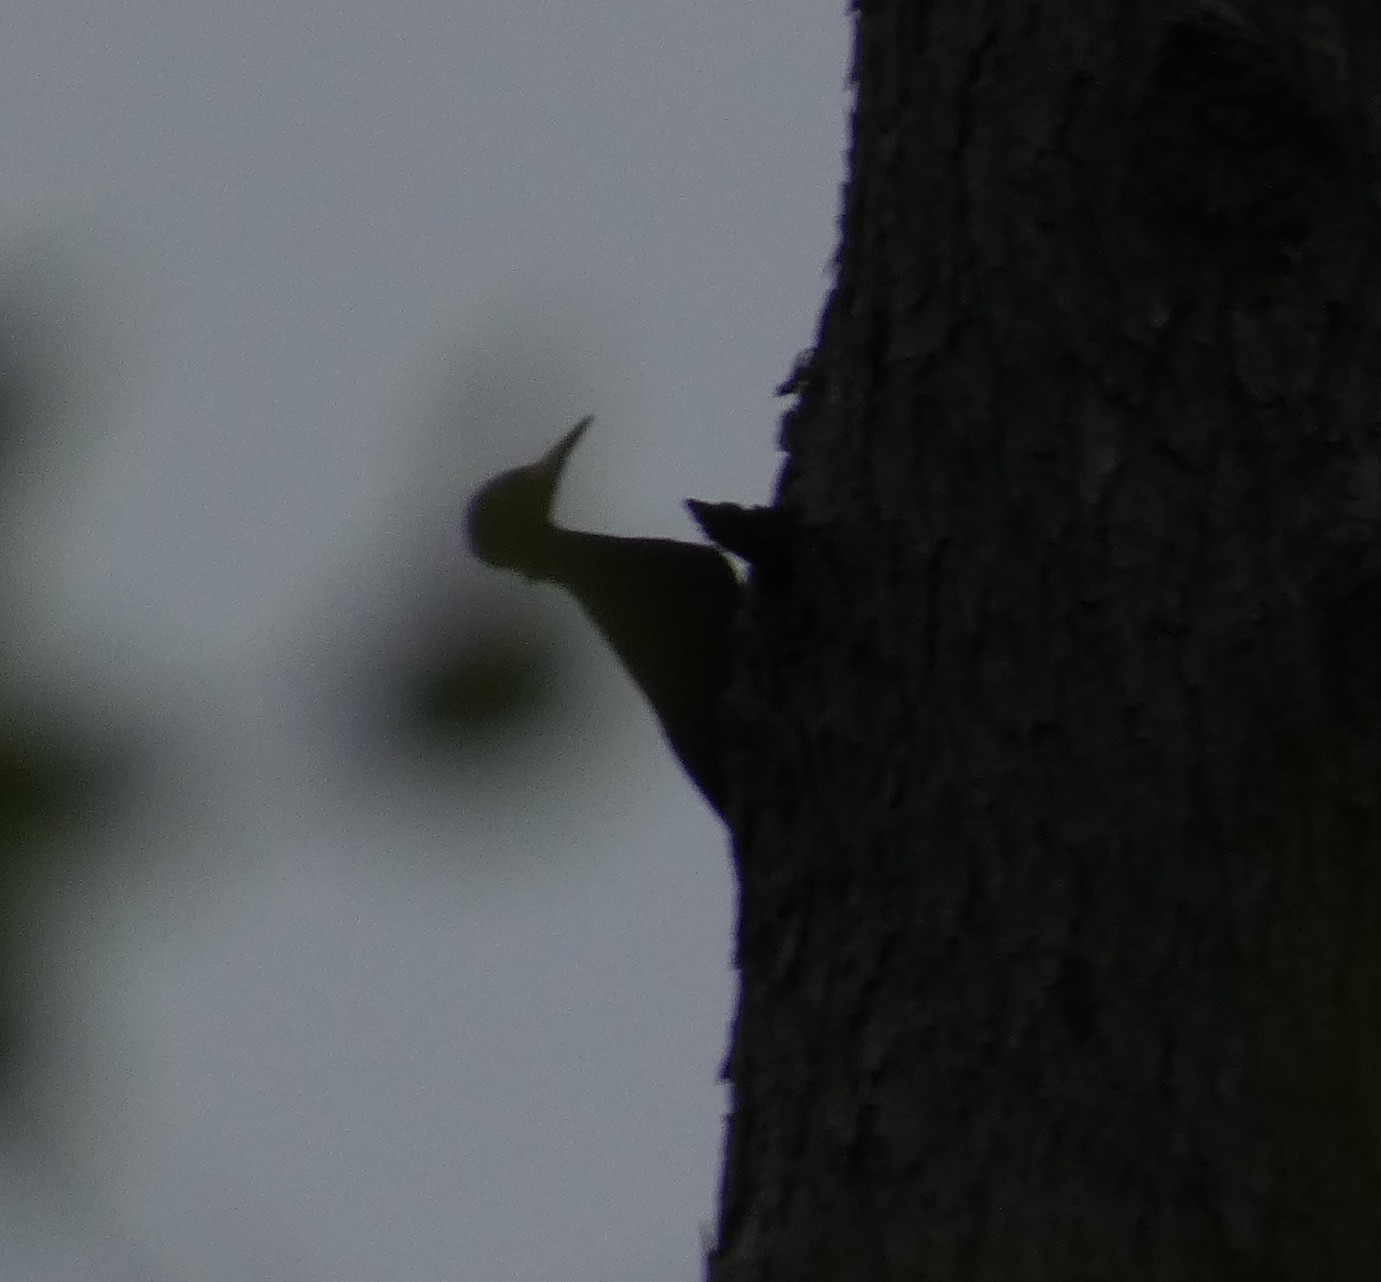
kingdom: Animalia
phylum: Chordata
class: Aves
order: Piciformes
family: Picidae
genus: Dryocopus
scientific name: Dryocopus martius
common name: Black woodpecker
